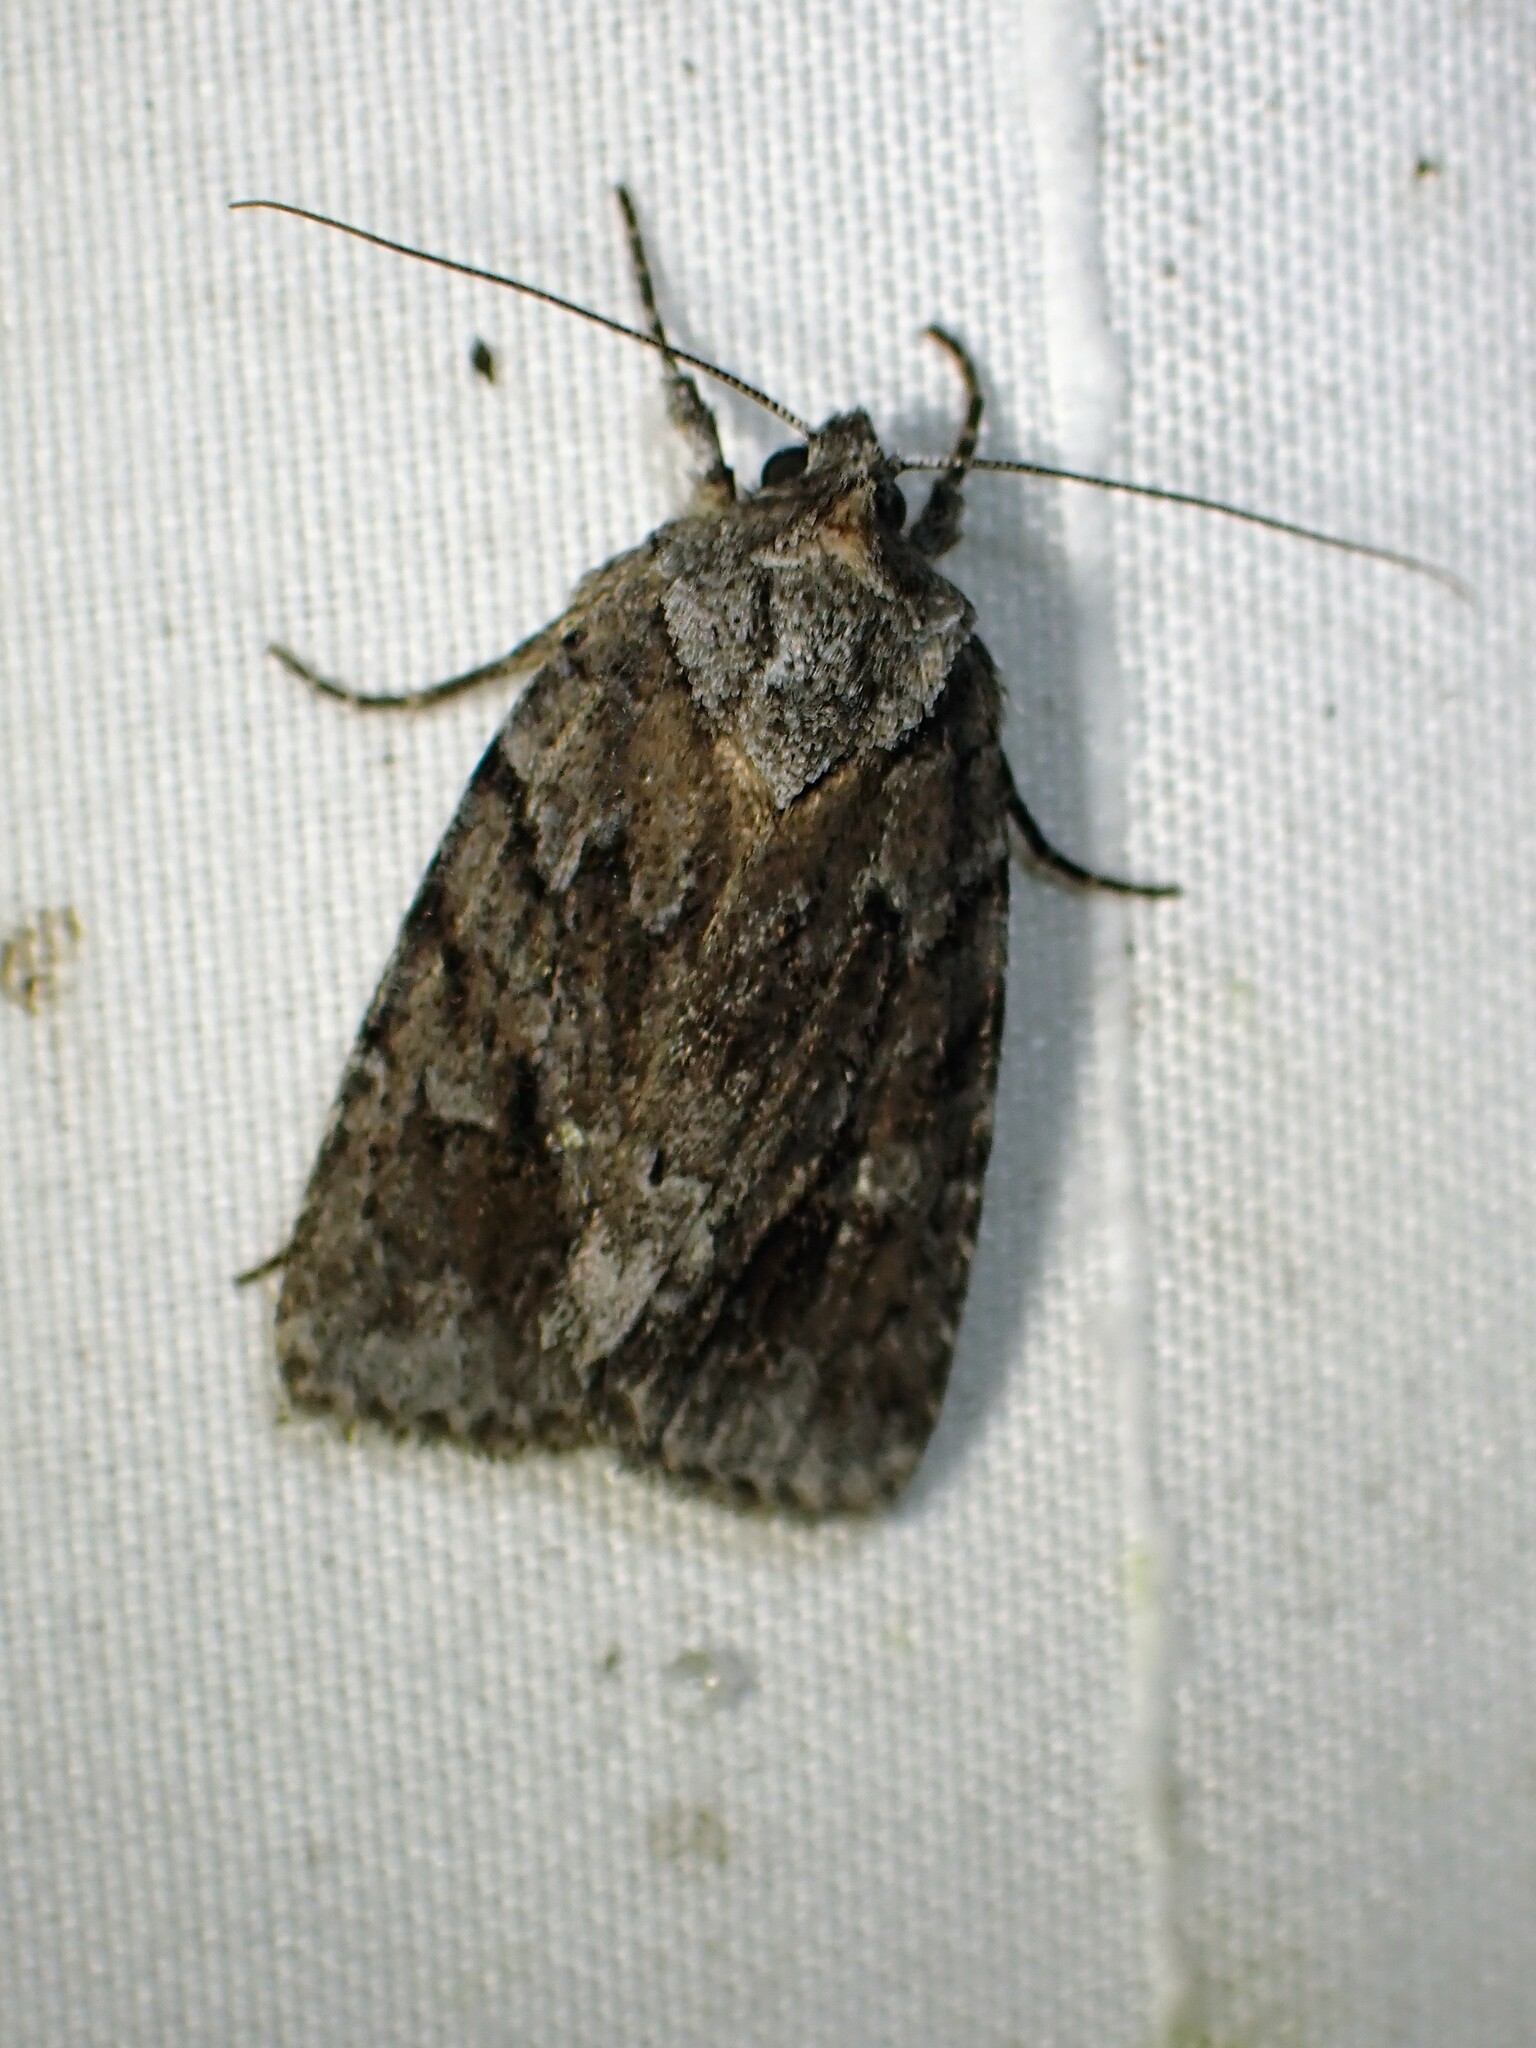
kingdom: Animalia
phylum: Arthropoda
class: Insecta
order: Lepidoptera
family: Noctuidae
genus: Sympistis
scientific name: Sympistis dentata
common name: Blueberry sallow
